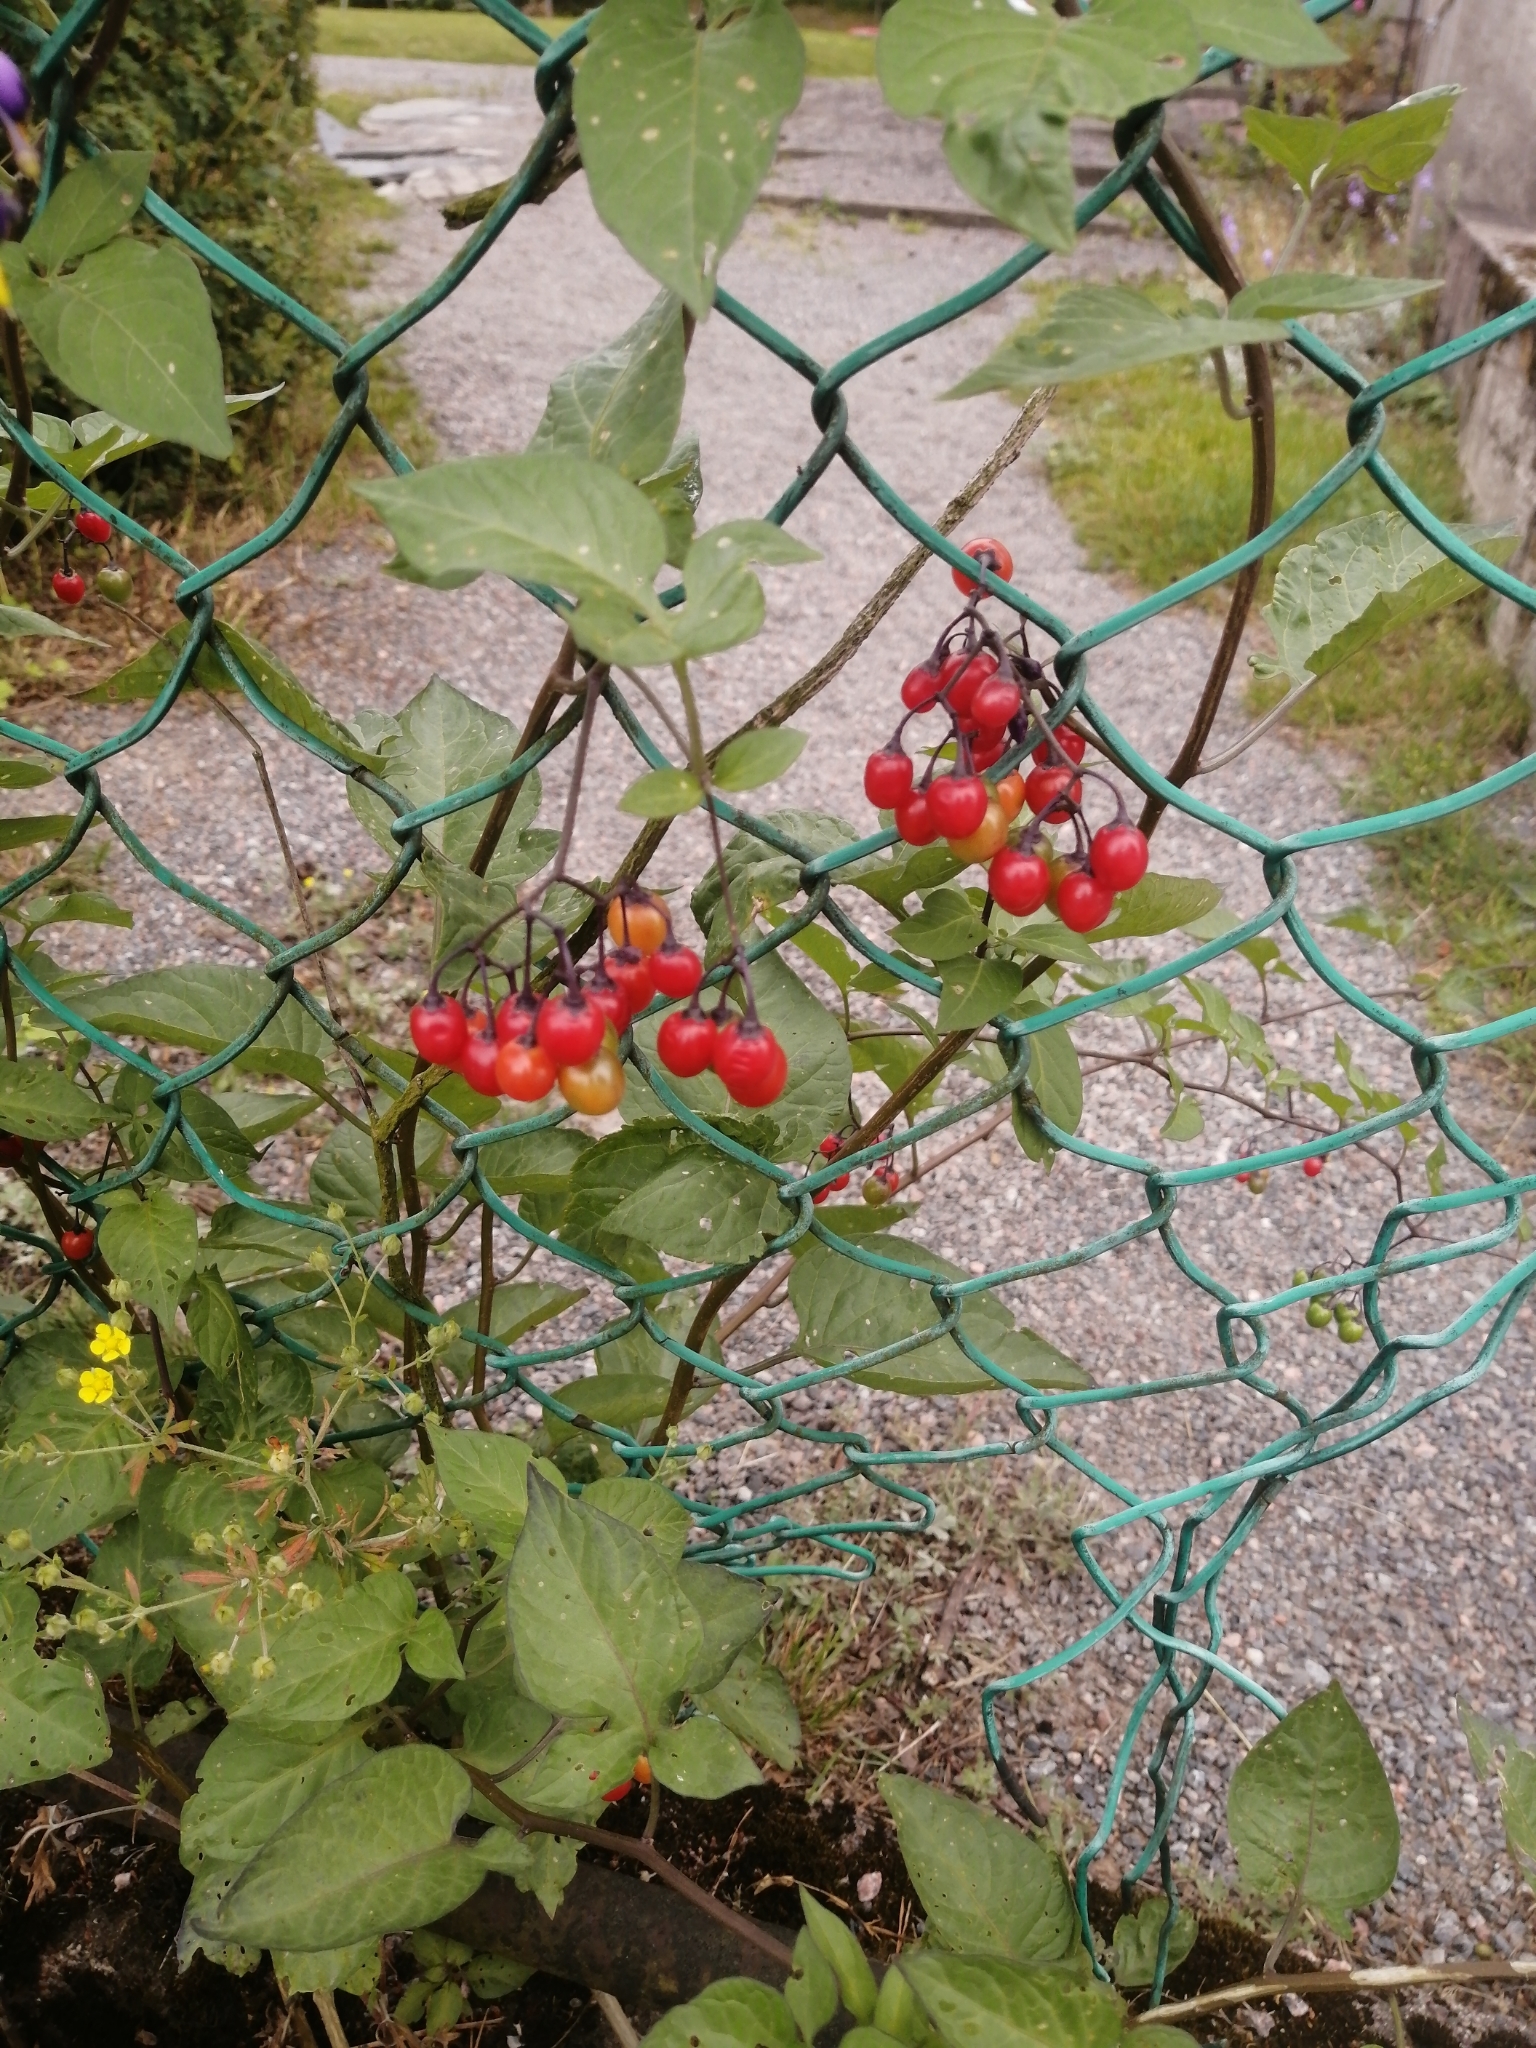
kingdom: Plantae
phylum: Tracheophyta
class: Magnoliopsida
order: Solanales
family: Solanaceae
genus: Solanum
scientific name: Solanum dulcamara
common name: Climbing nightshade
